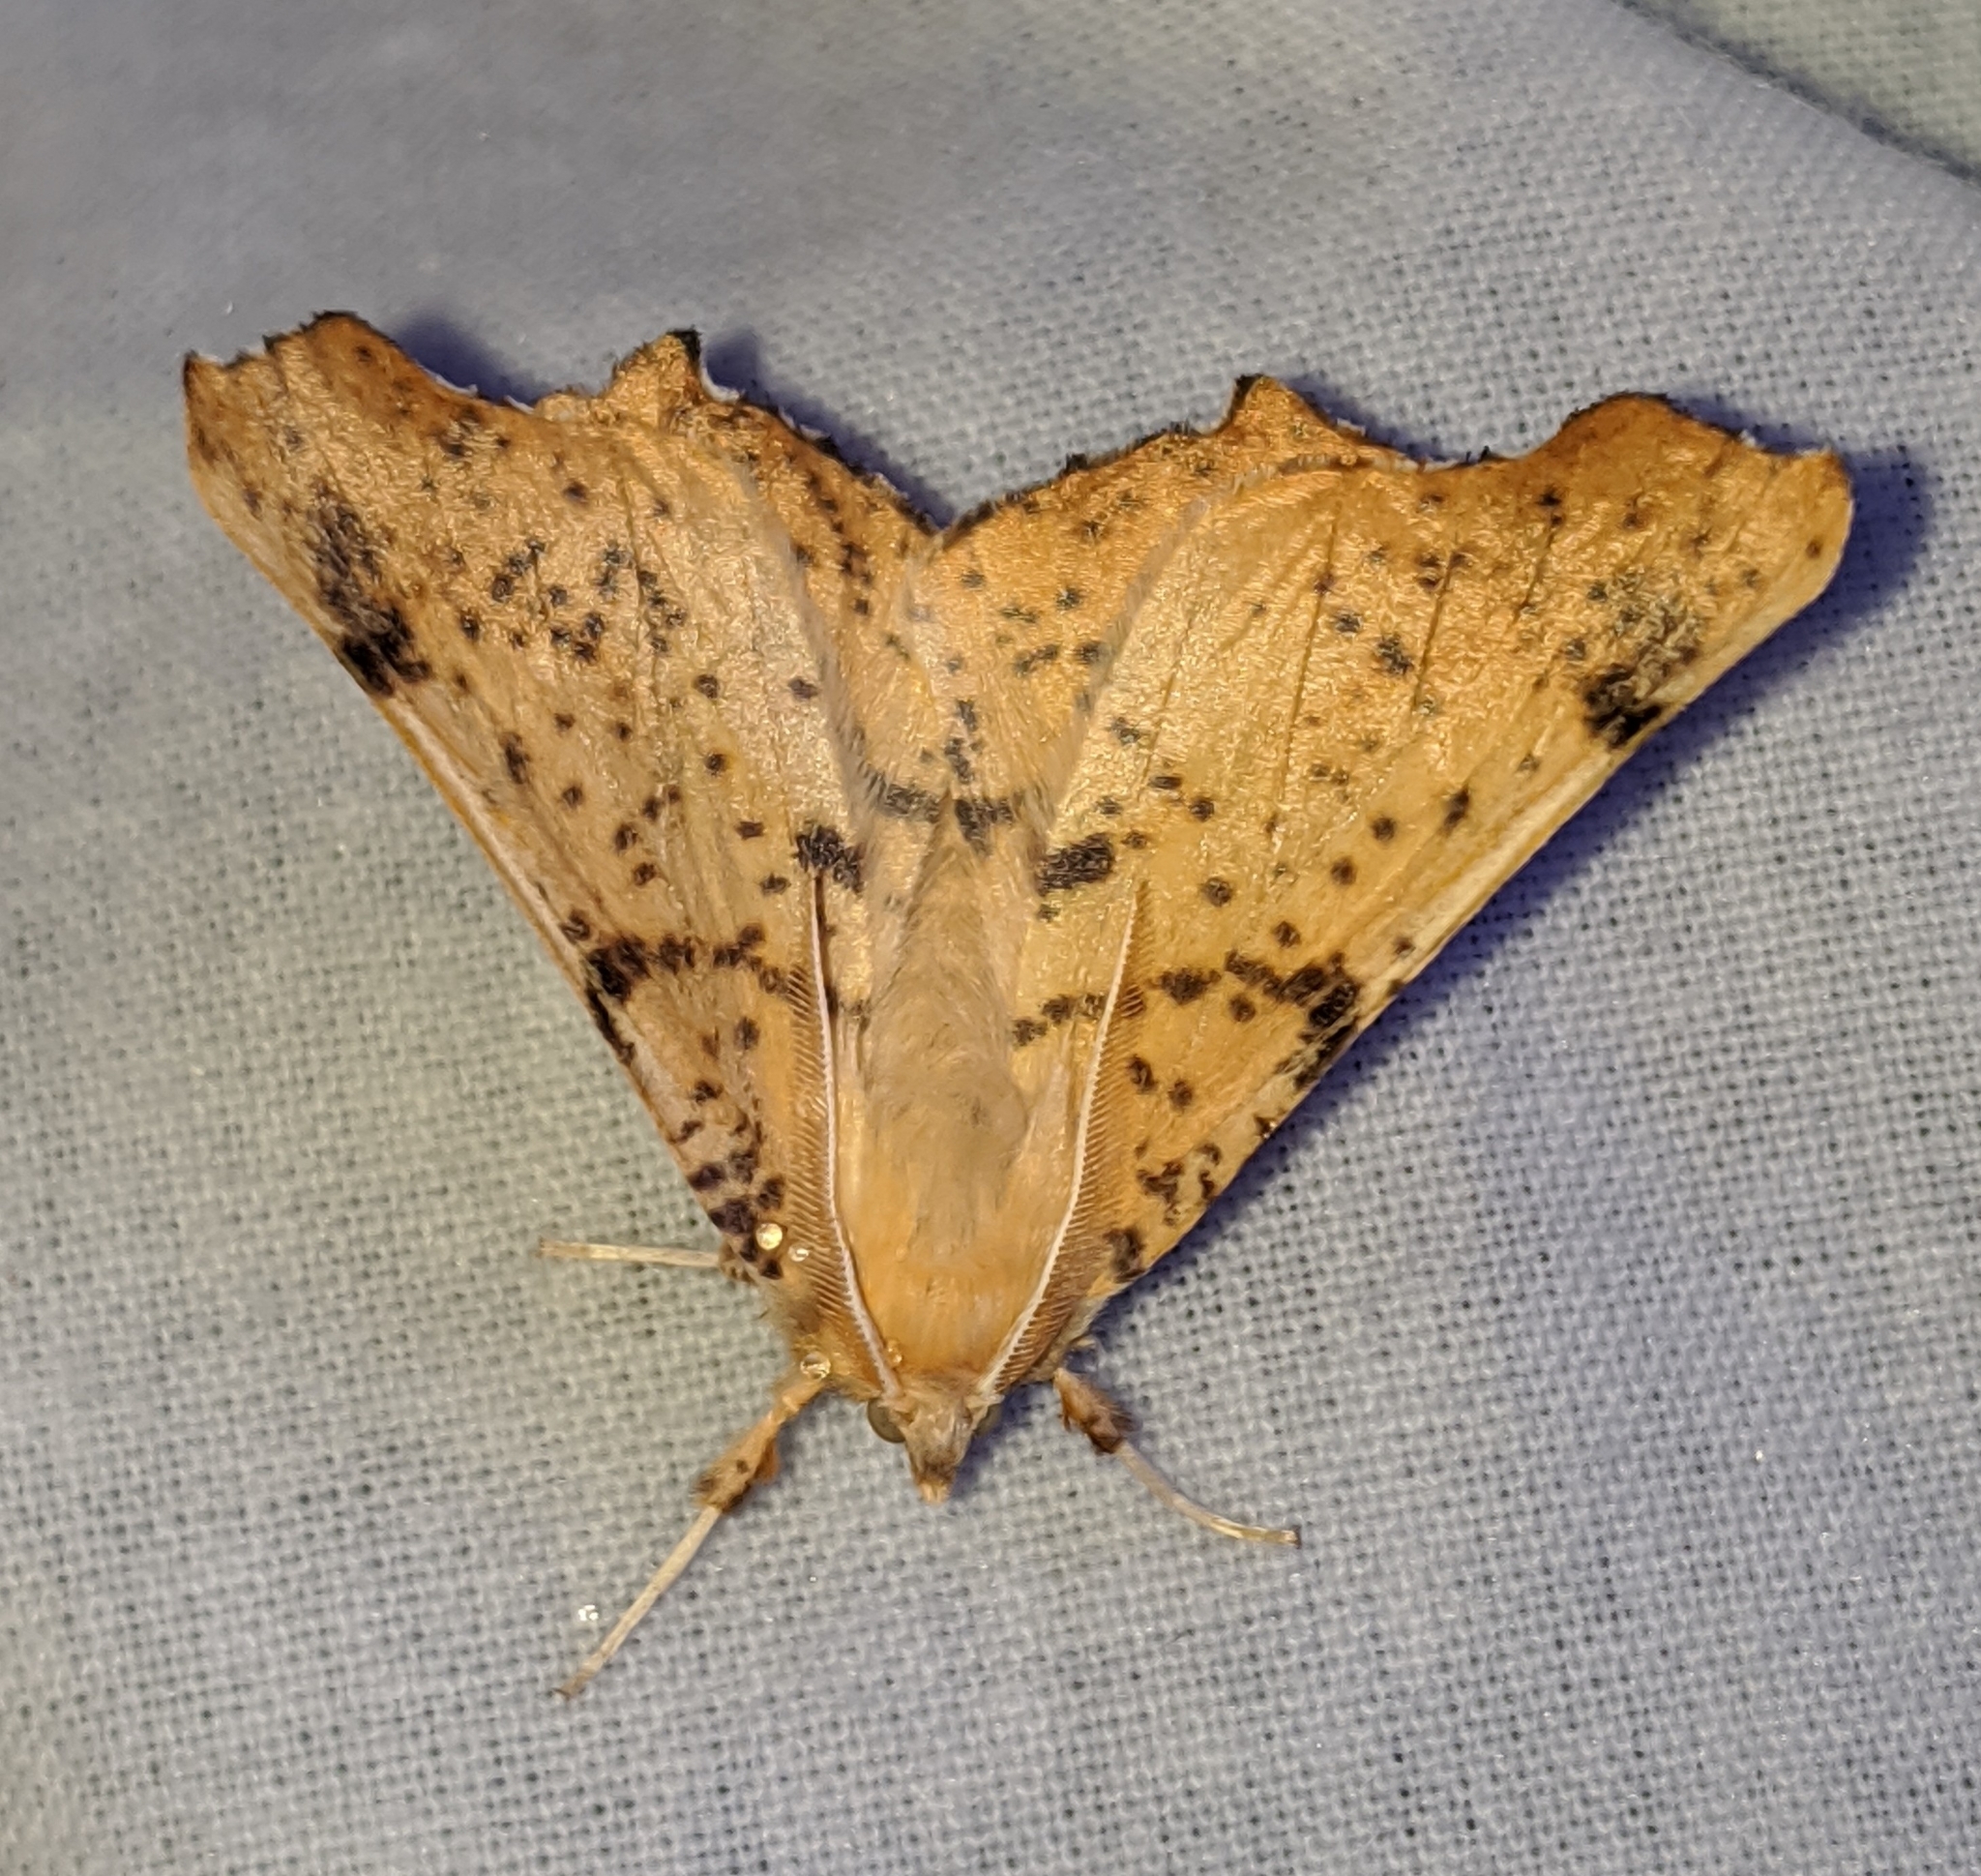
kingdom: Animalia
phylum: Arthropoda
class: Insecta
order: Lepidoptera
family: Geometridae
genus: Ennomos
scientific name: Ennomos magnaria
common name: Maple spanworm
